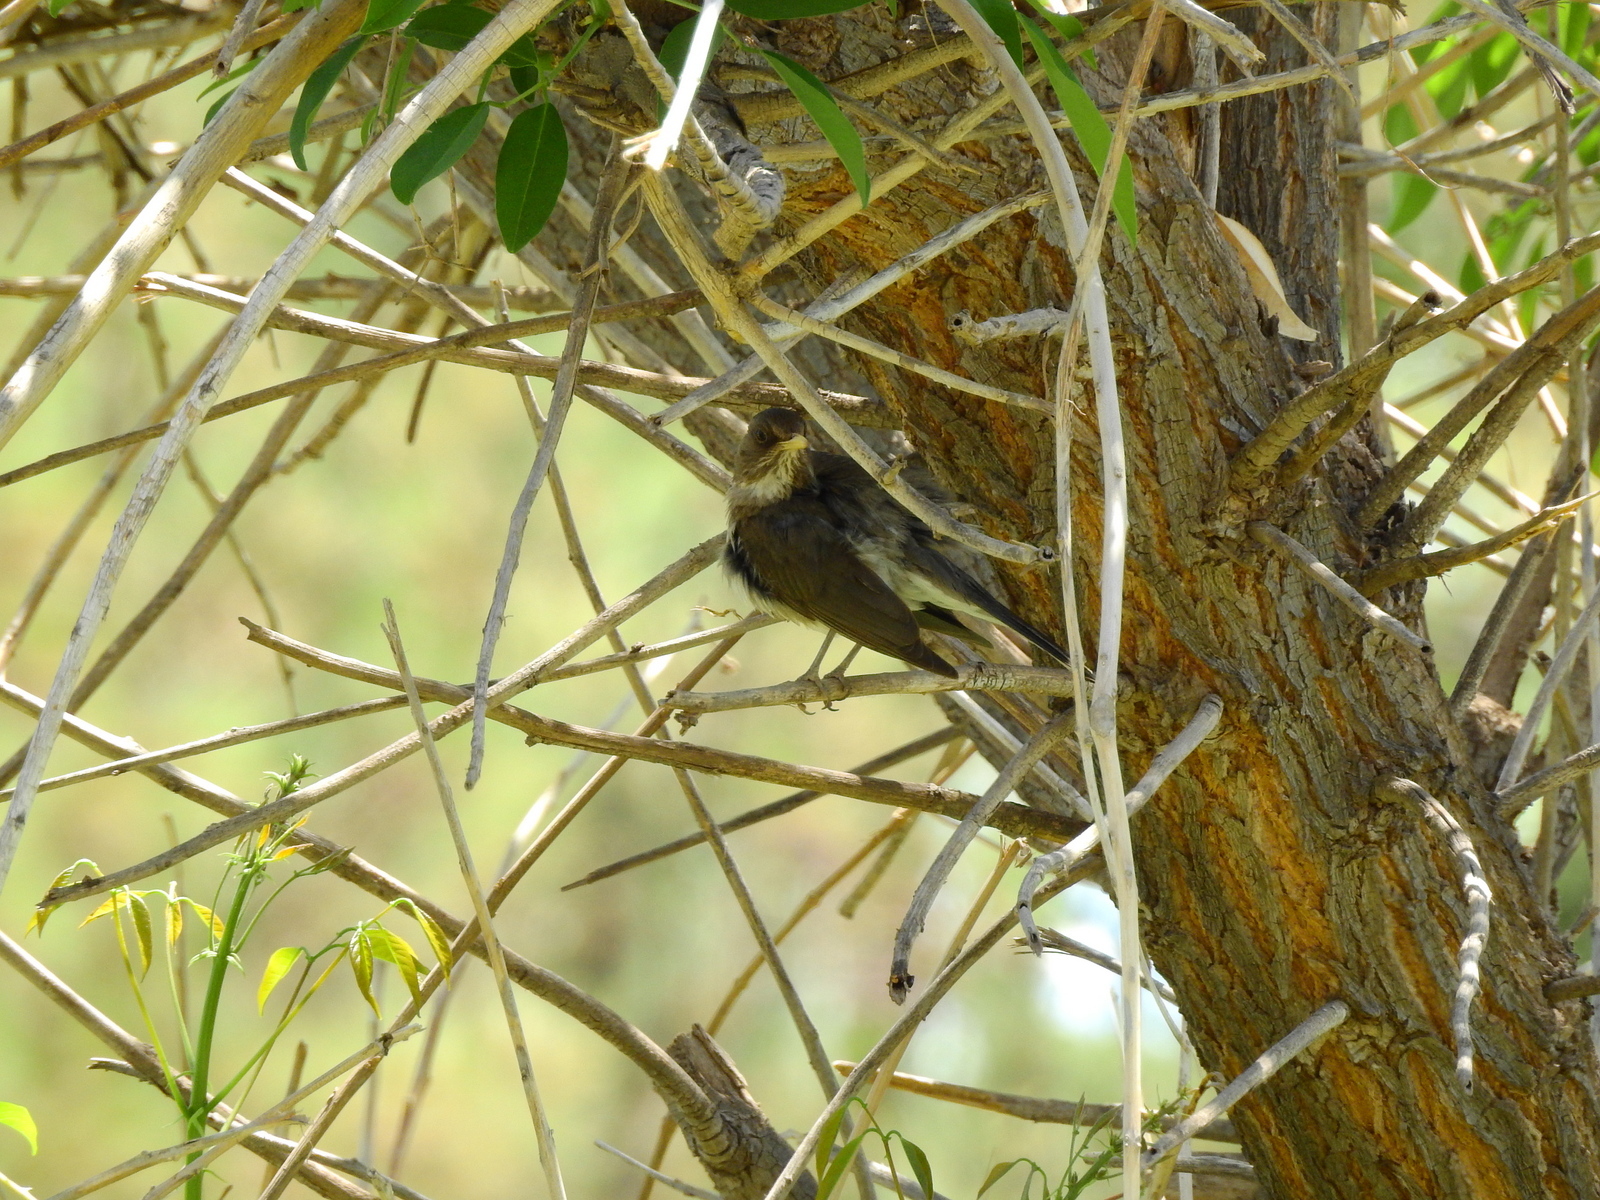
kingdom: Animalia
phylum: Chordata
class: Aves
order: Passeriformes
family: Turdidae
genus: Turdus
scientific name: Turdus amaurochalinus
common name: Creamy-bellied thrush
